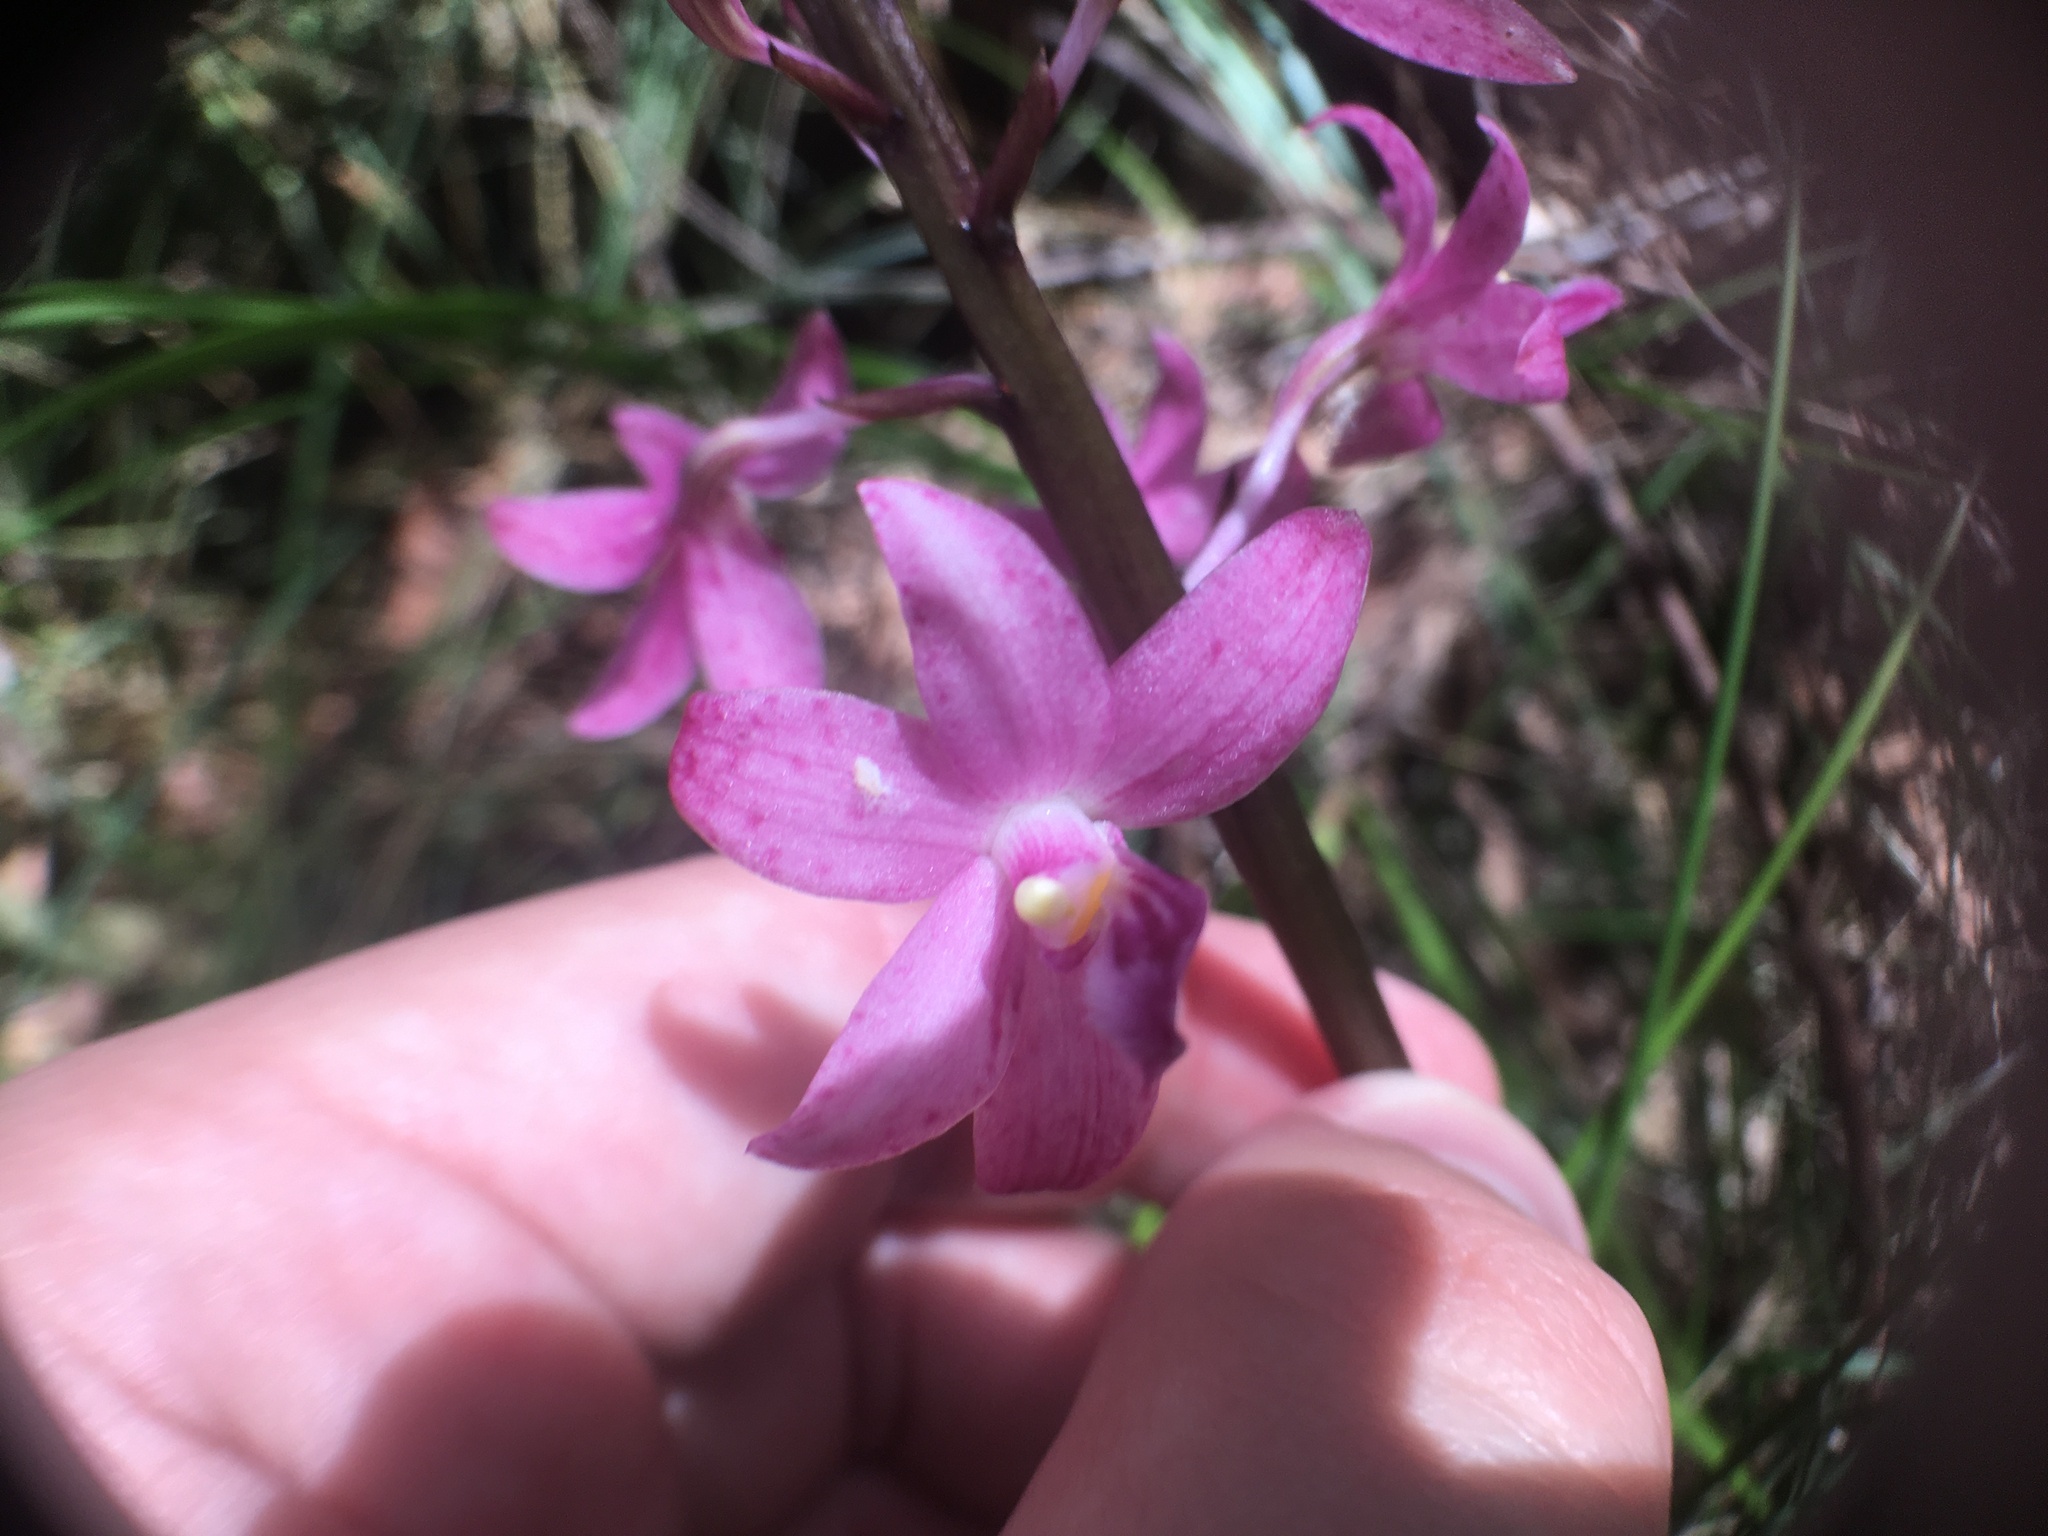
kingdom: Plantae
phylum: Tracheophyta
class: Liliopsida
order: Asparagales
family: Orchidaceae
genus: Dipodium
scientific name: Dipodium roseum
